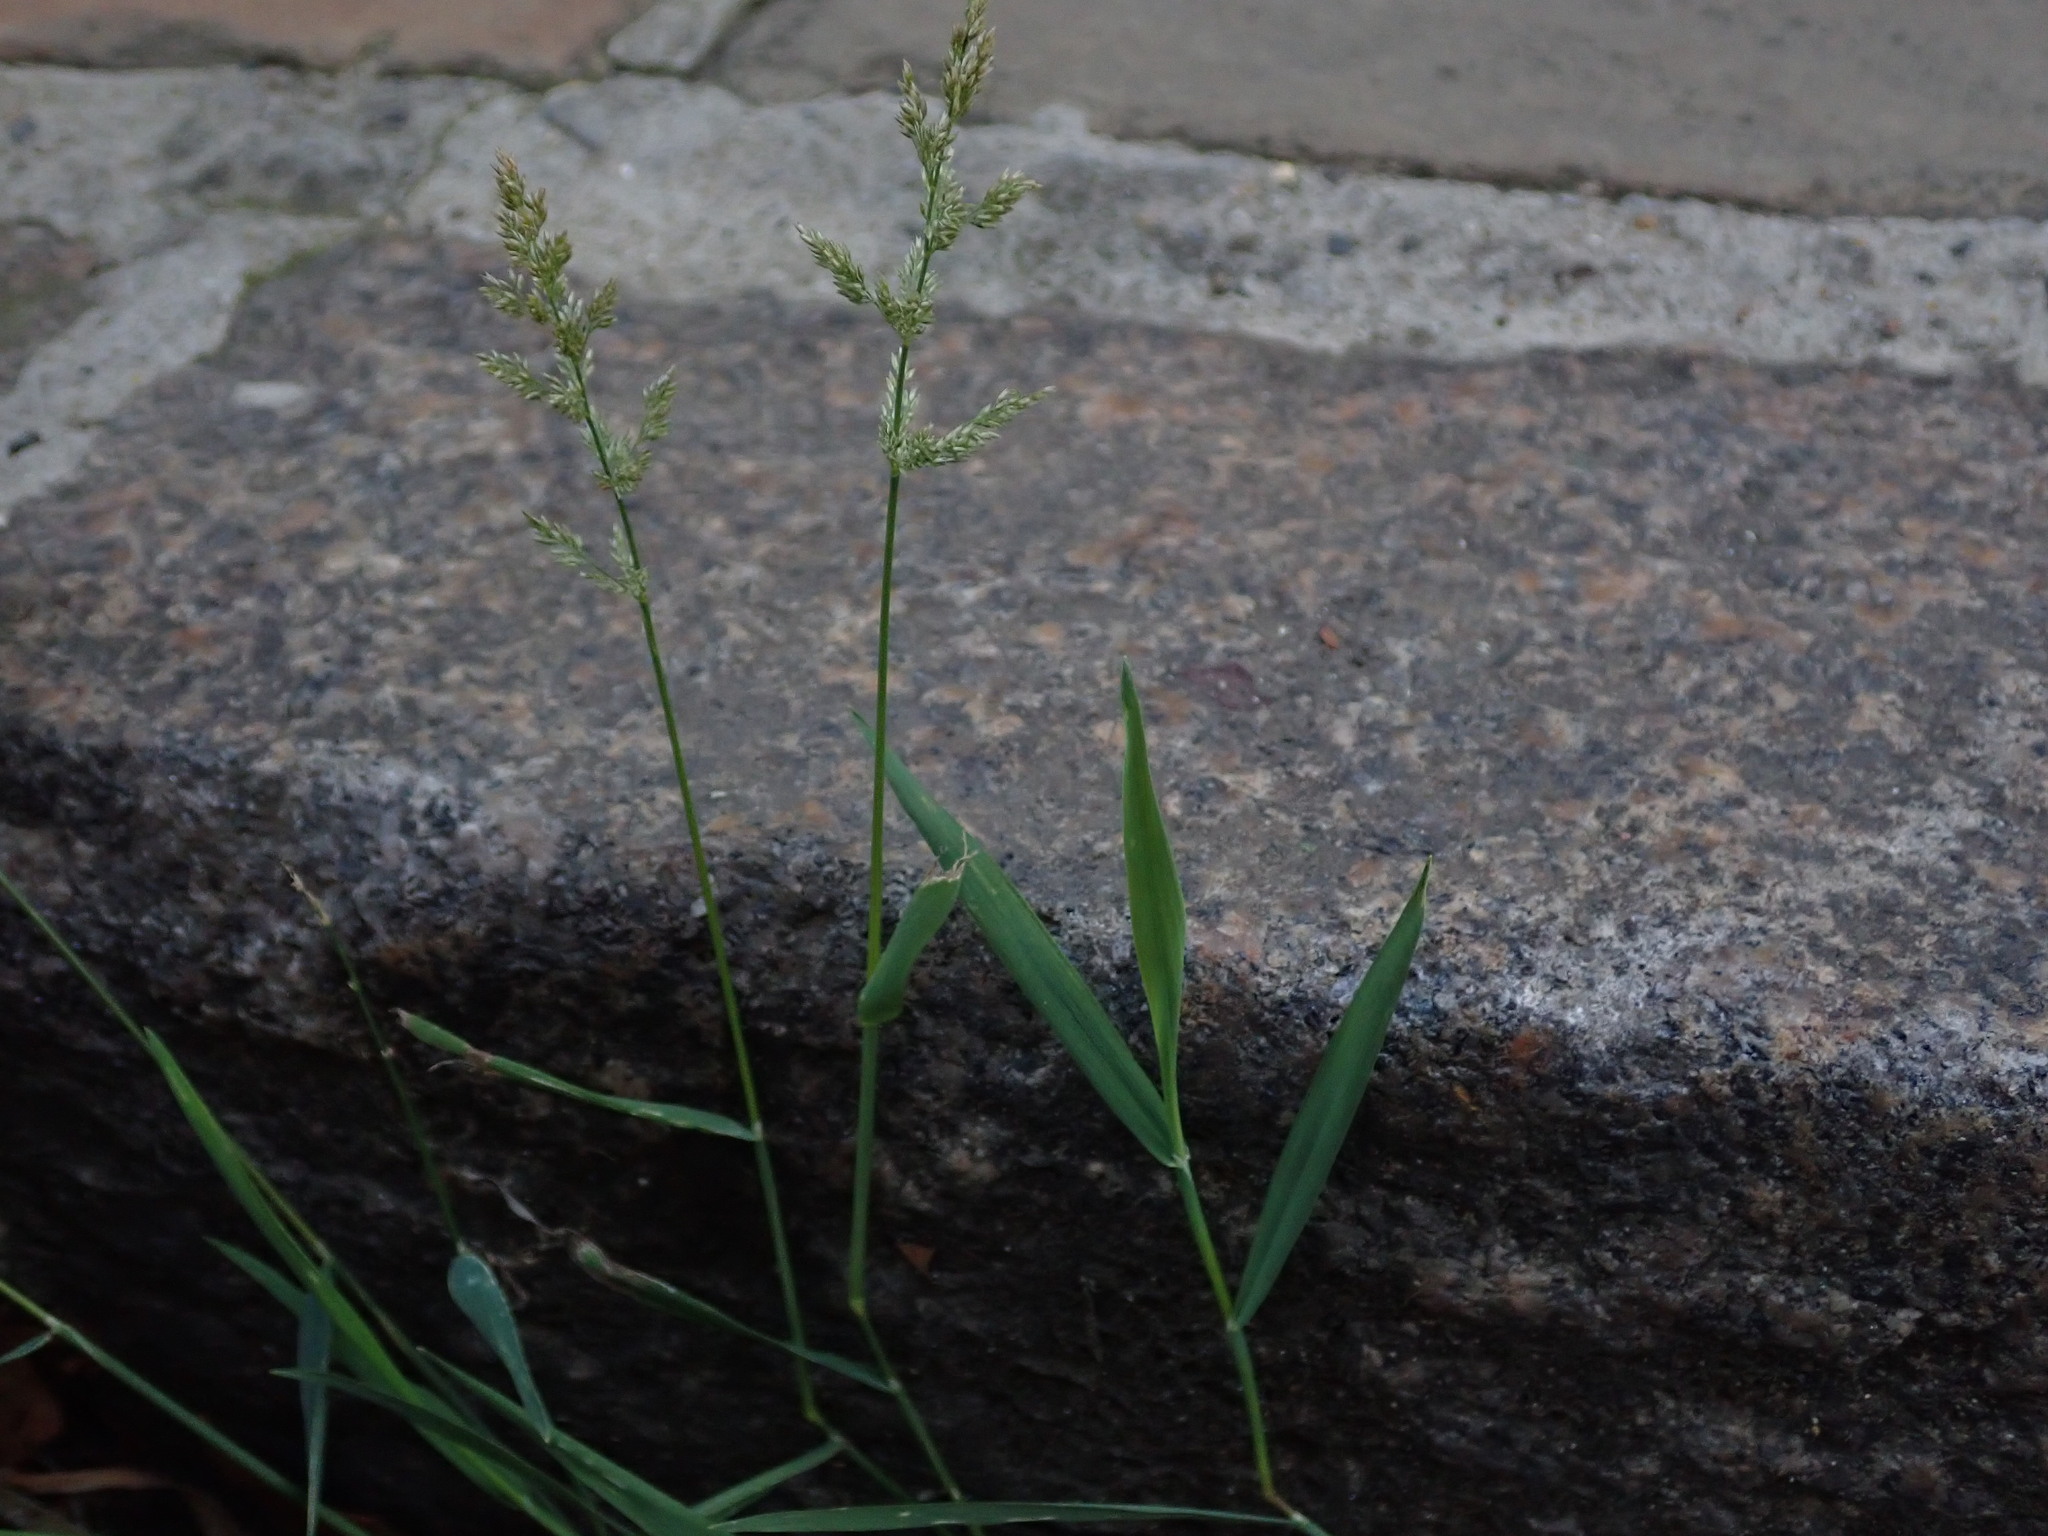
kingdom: Plantae
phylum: Tracheophyta
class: Liliopsida
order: Poales
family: Poaceae
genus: Polypogon
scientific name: Polypogon viridis
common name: Water bent
